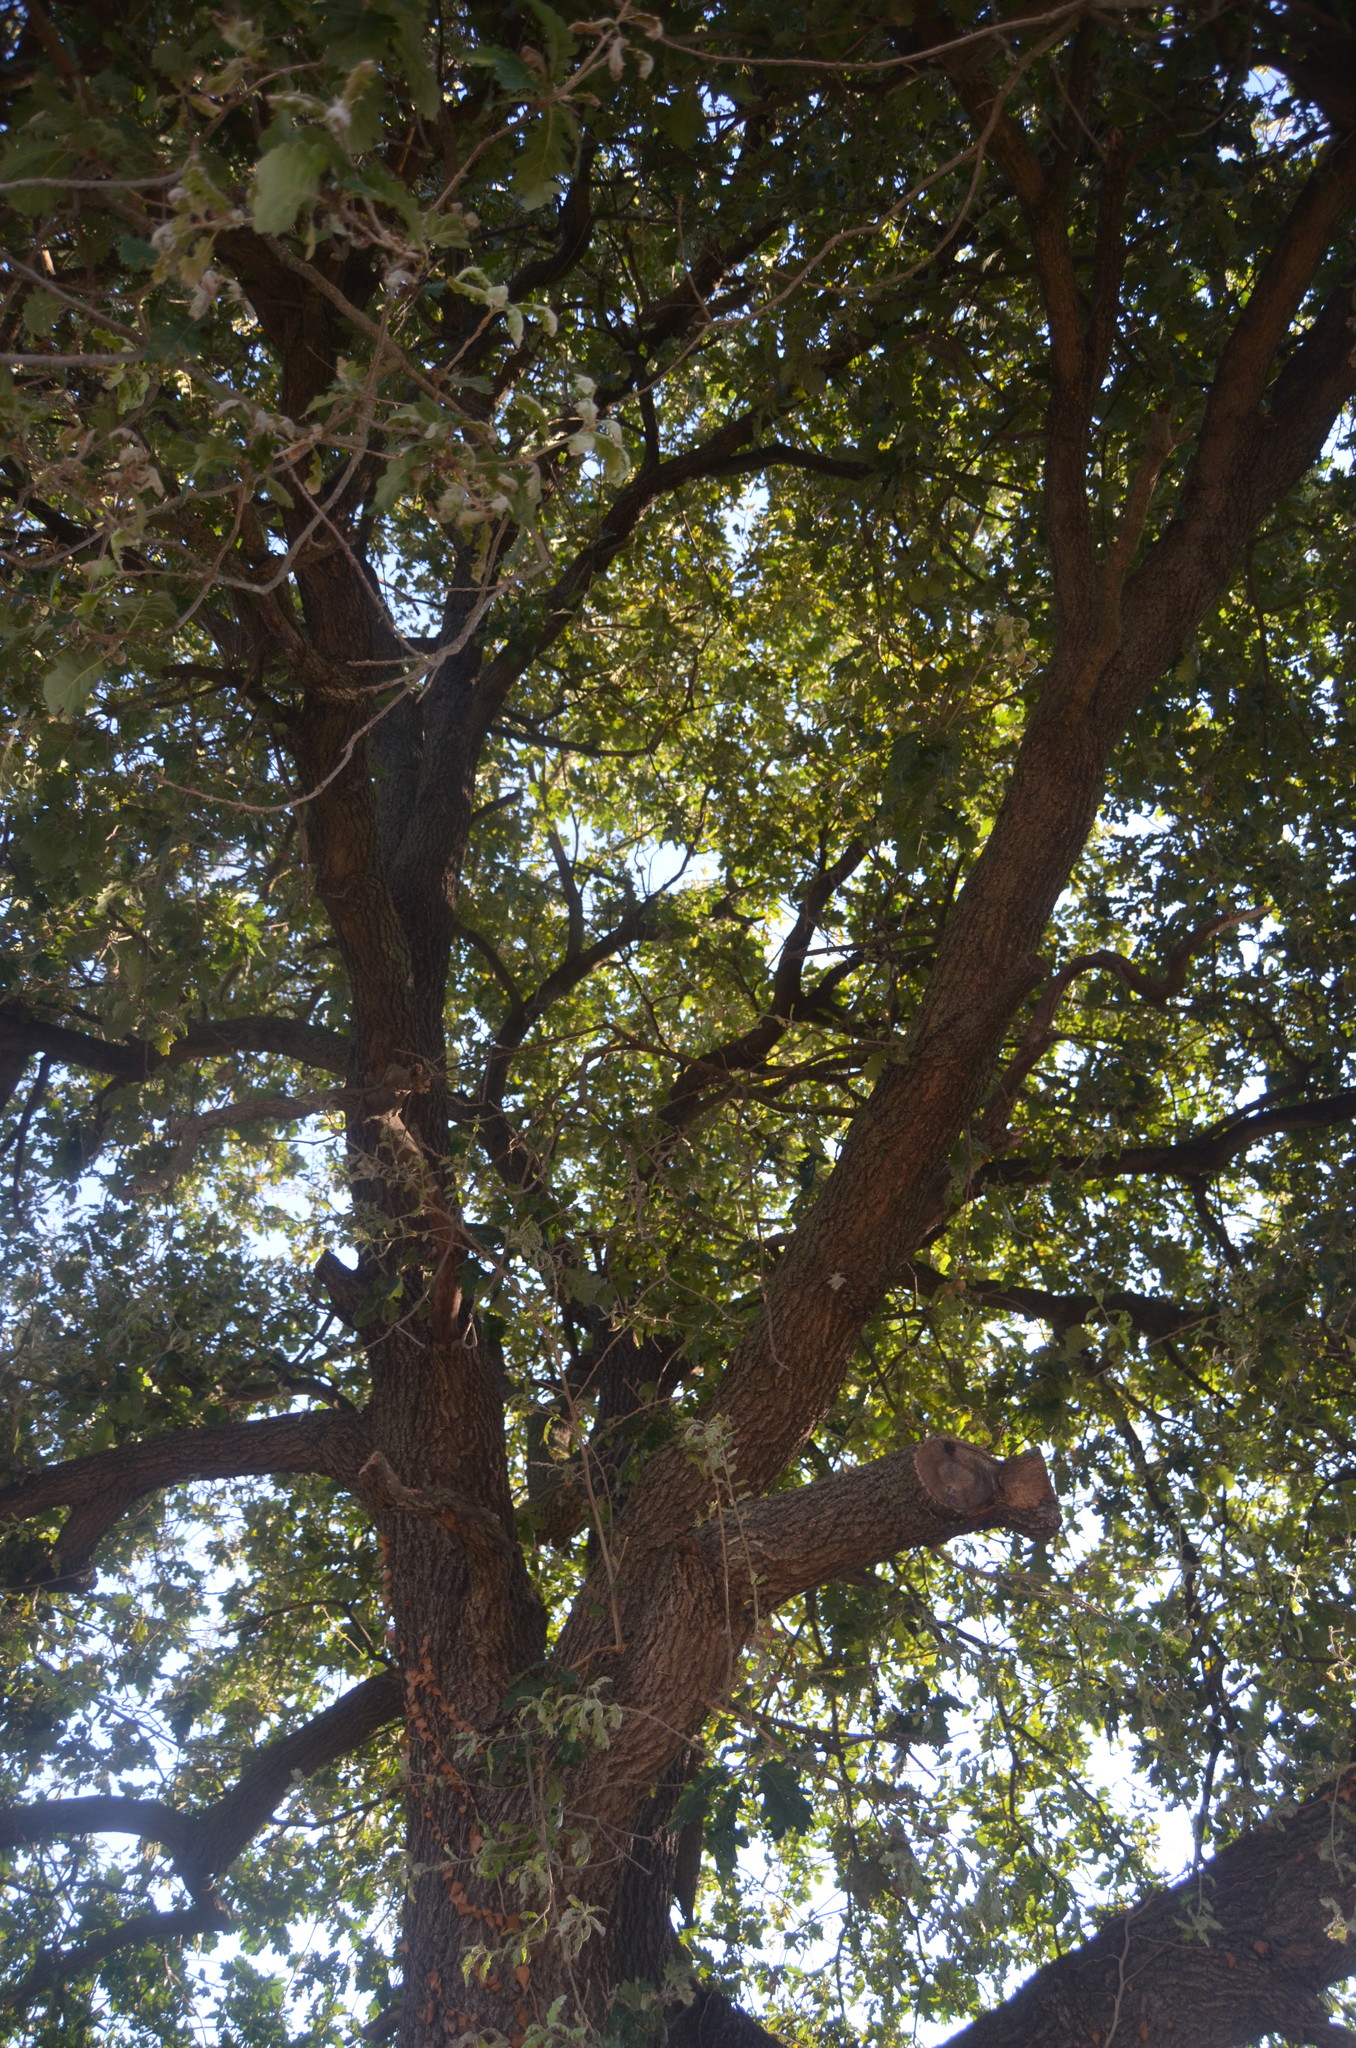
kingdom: Plantae
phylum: Tracheophyta
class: Magnoliopsida
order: Fagales
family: Fagaceae
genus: Quercus
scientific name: Quercus petraea
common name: Sessile oak
